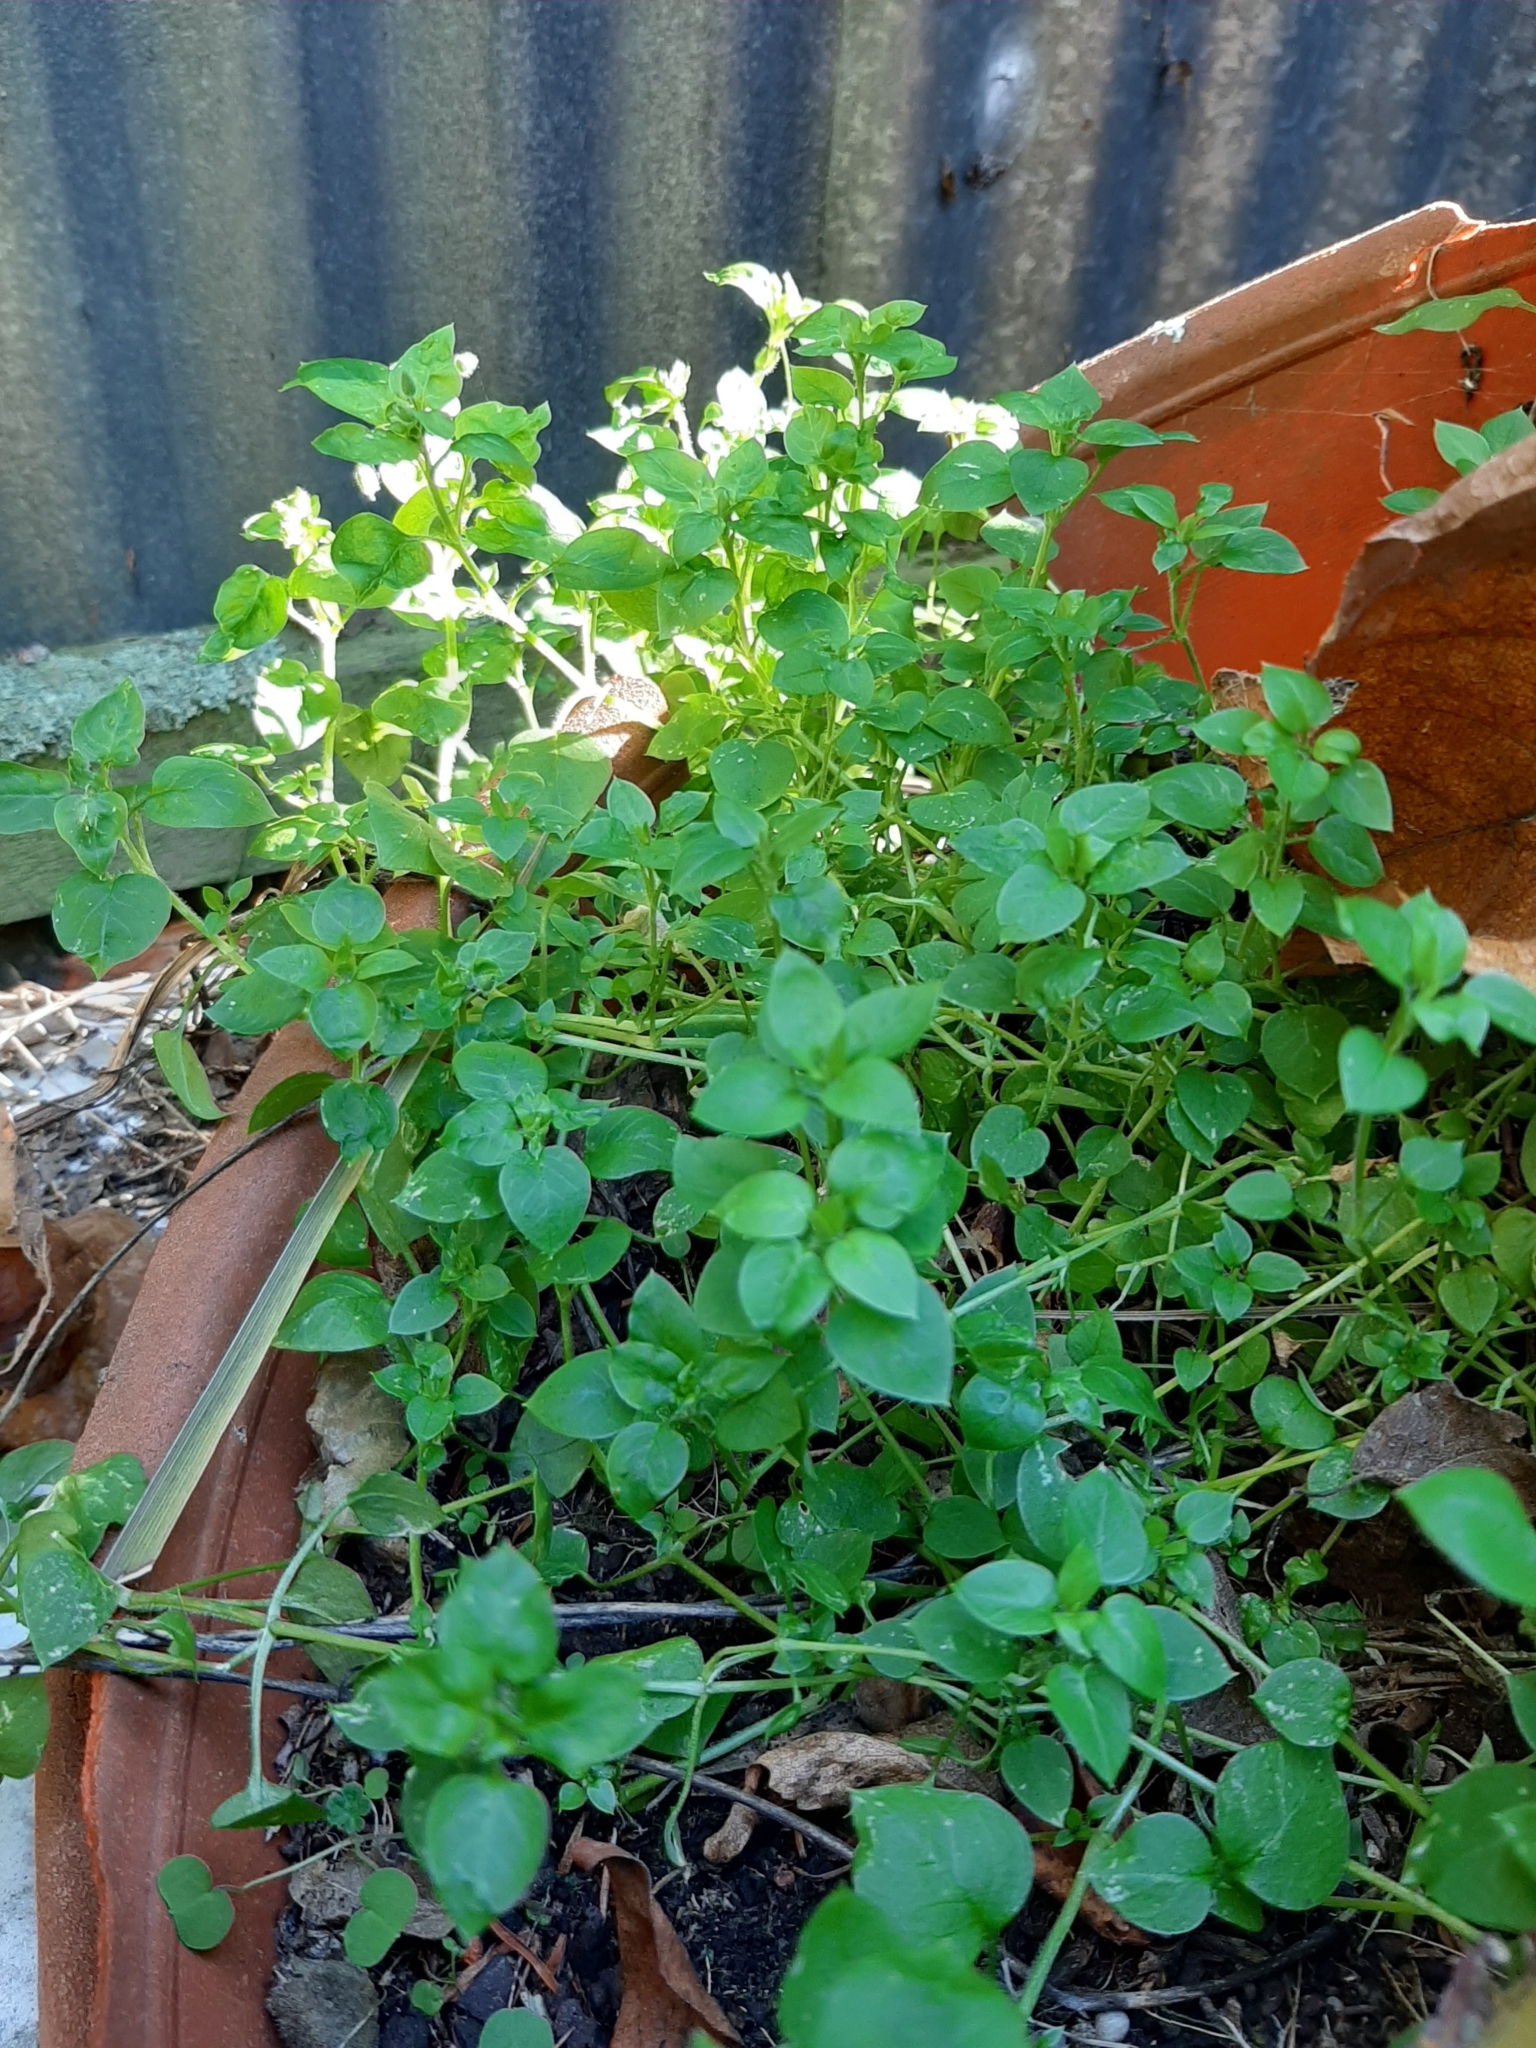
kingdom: Plantae
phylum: Tracheophyta
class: Magnoliopsida
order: Caryophyllales
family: Caryophyllaceae
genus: Stellaria
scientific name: Stellaria media
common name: Common chickweed
